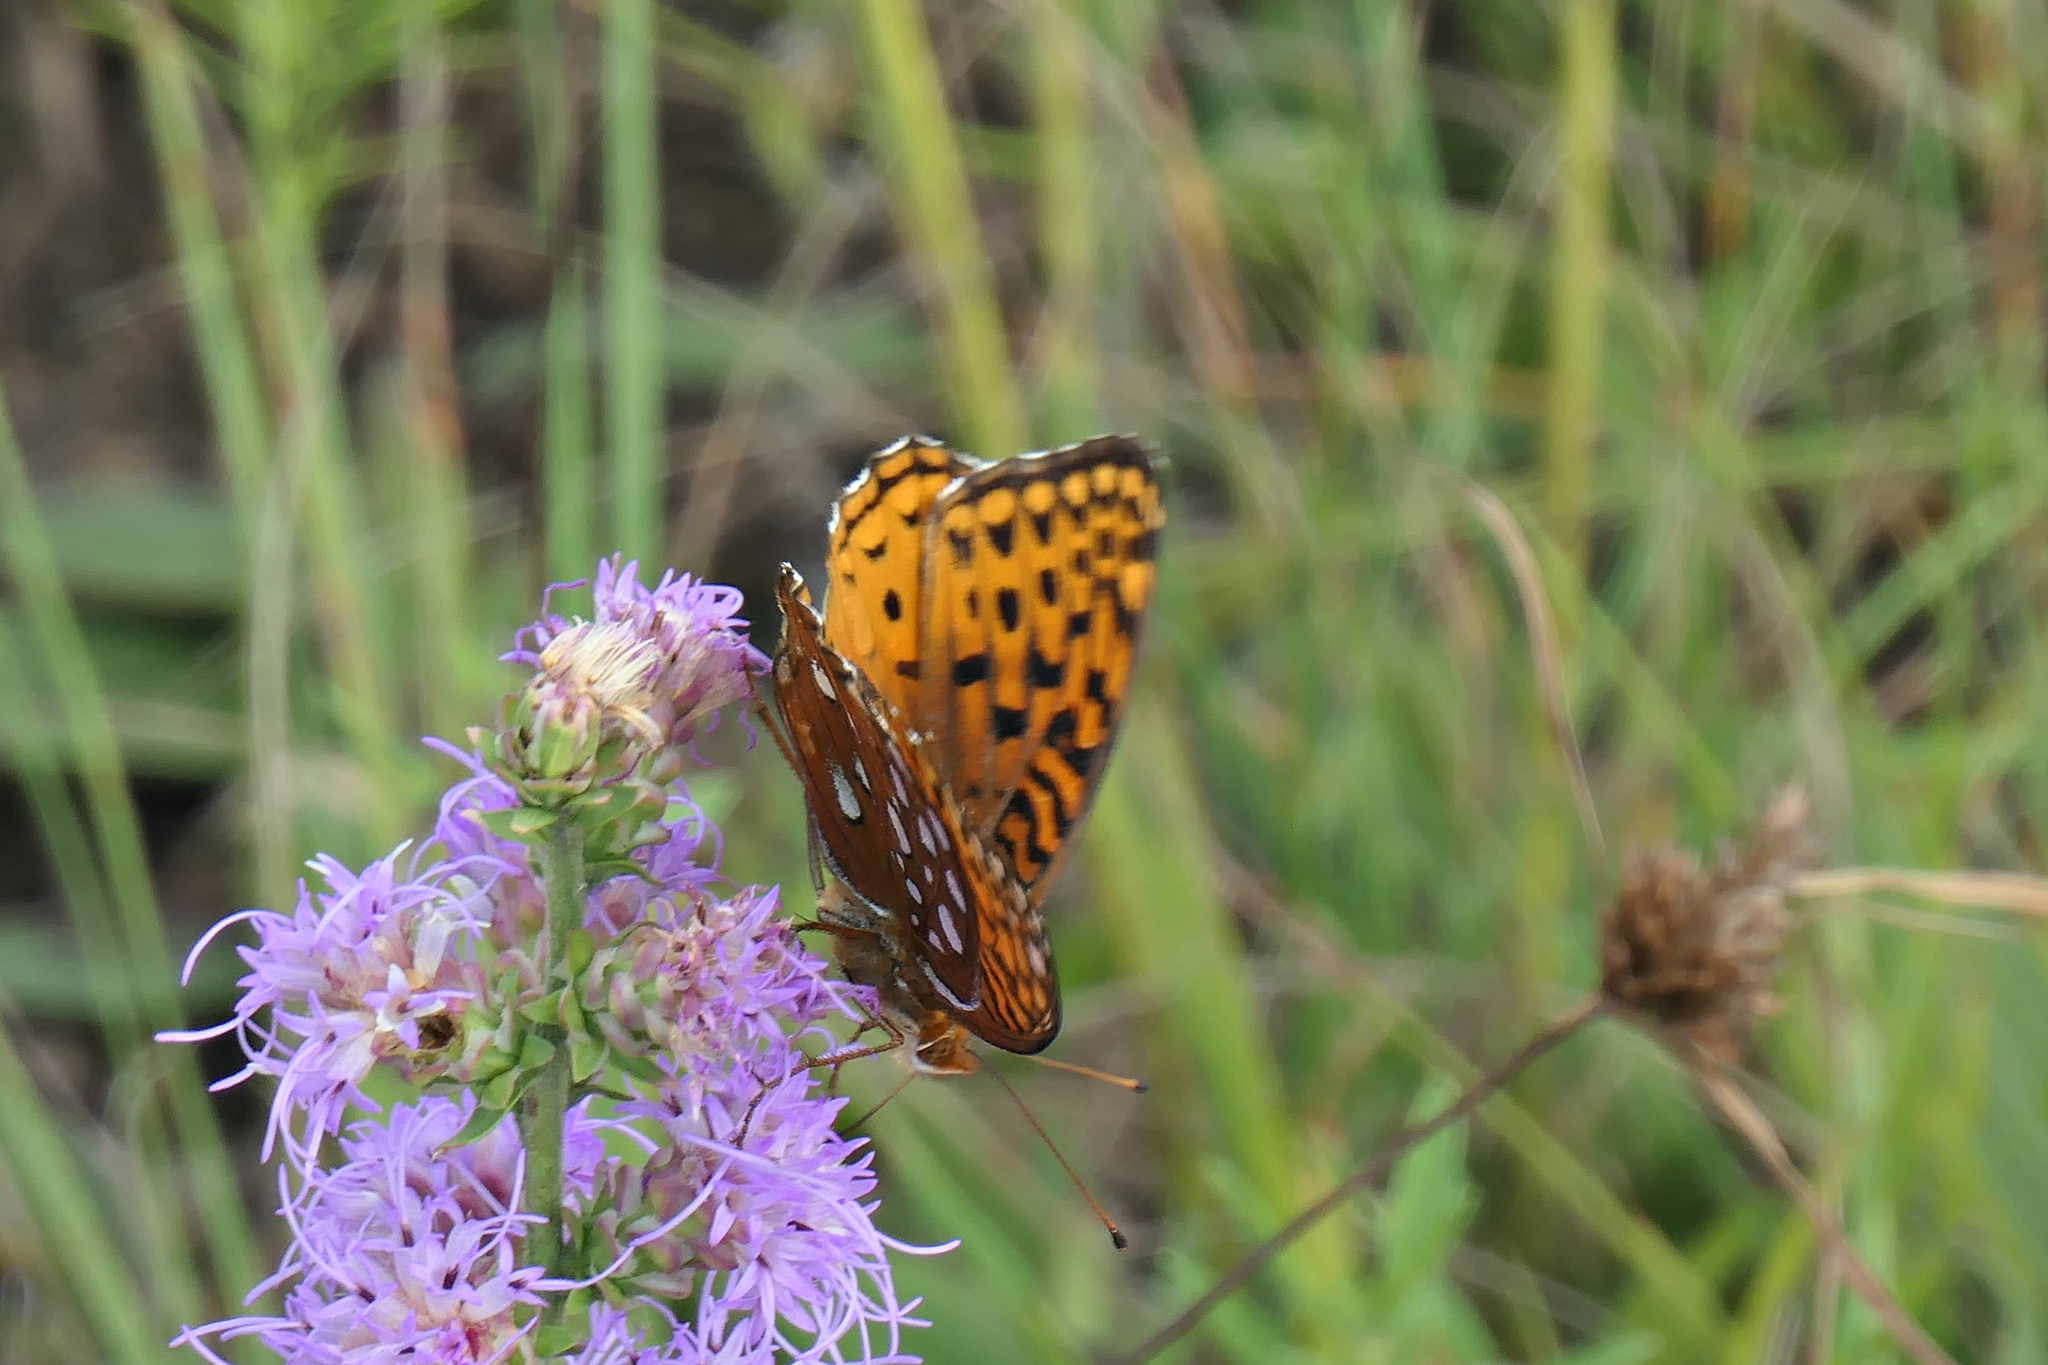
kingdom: Animalia
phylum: Arthropoda
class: Insecta
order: Lepidoptera
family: Nymphalidae
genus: Speyeria
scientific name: Speyeria aphrodite
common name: Aphrodite friitllary
